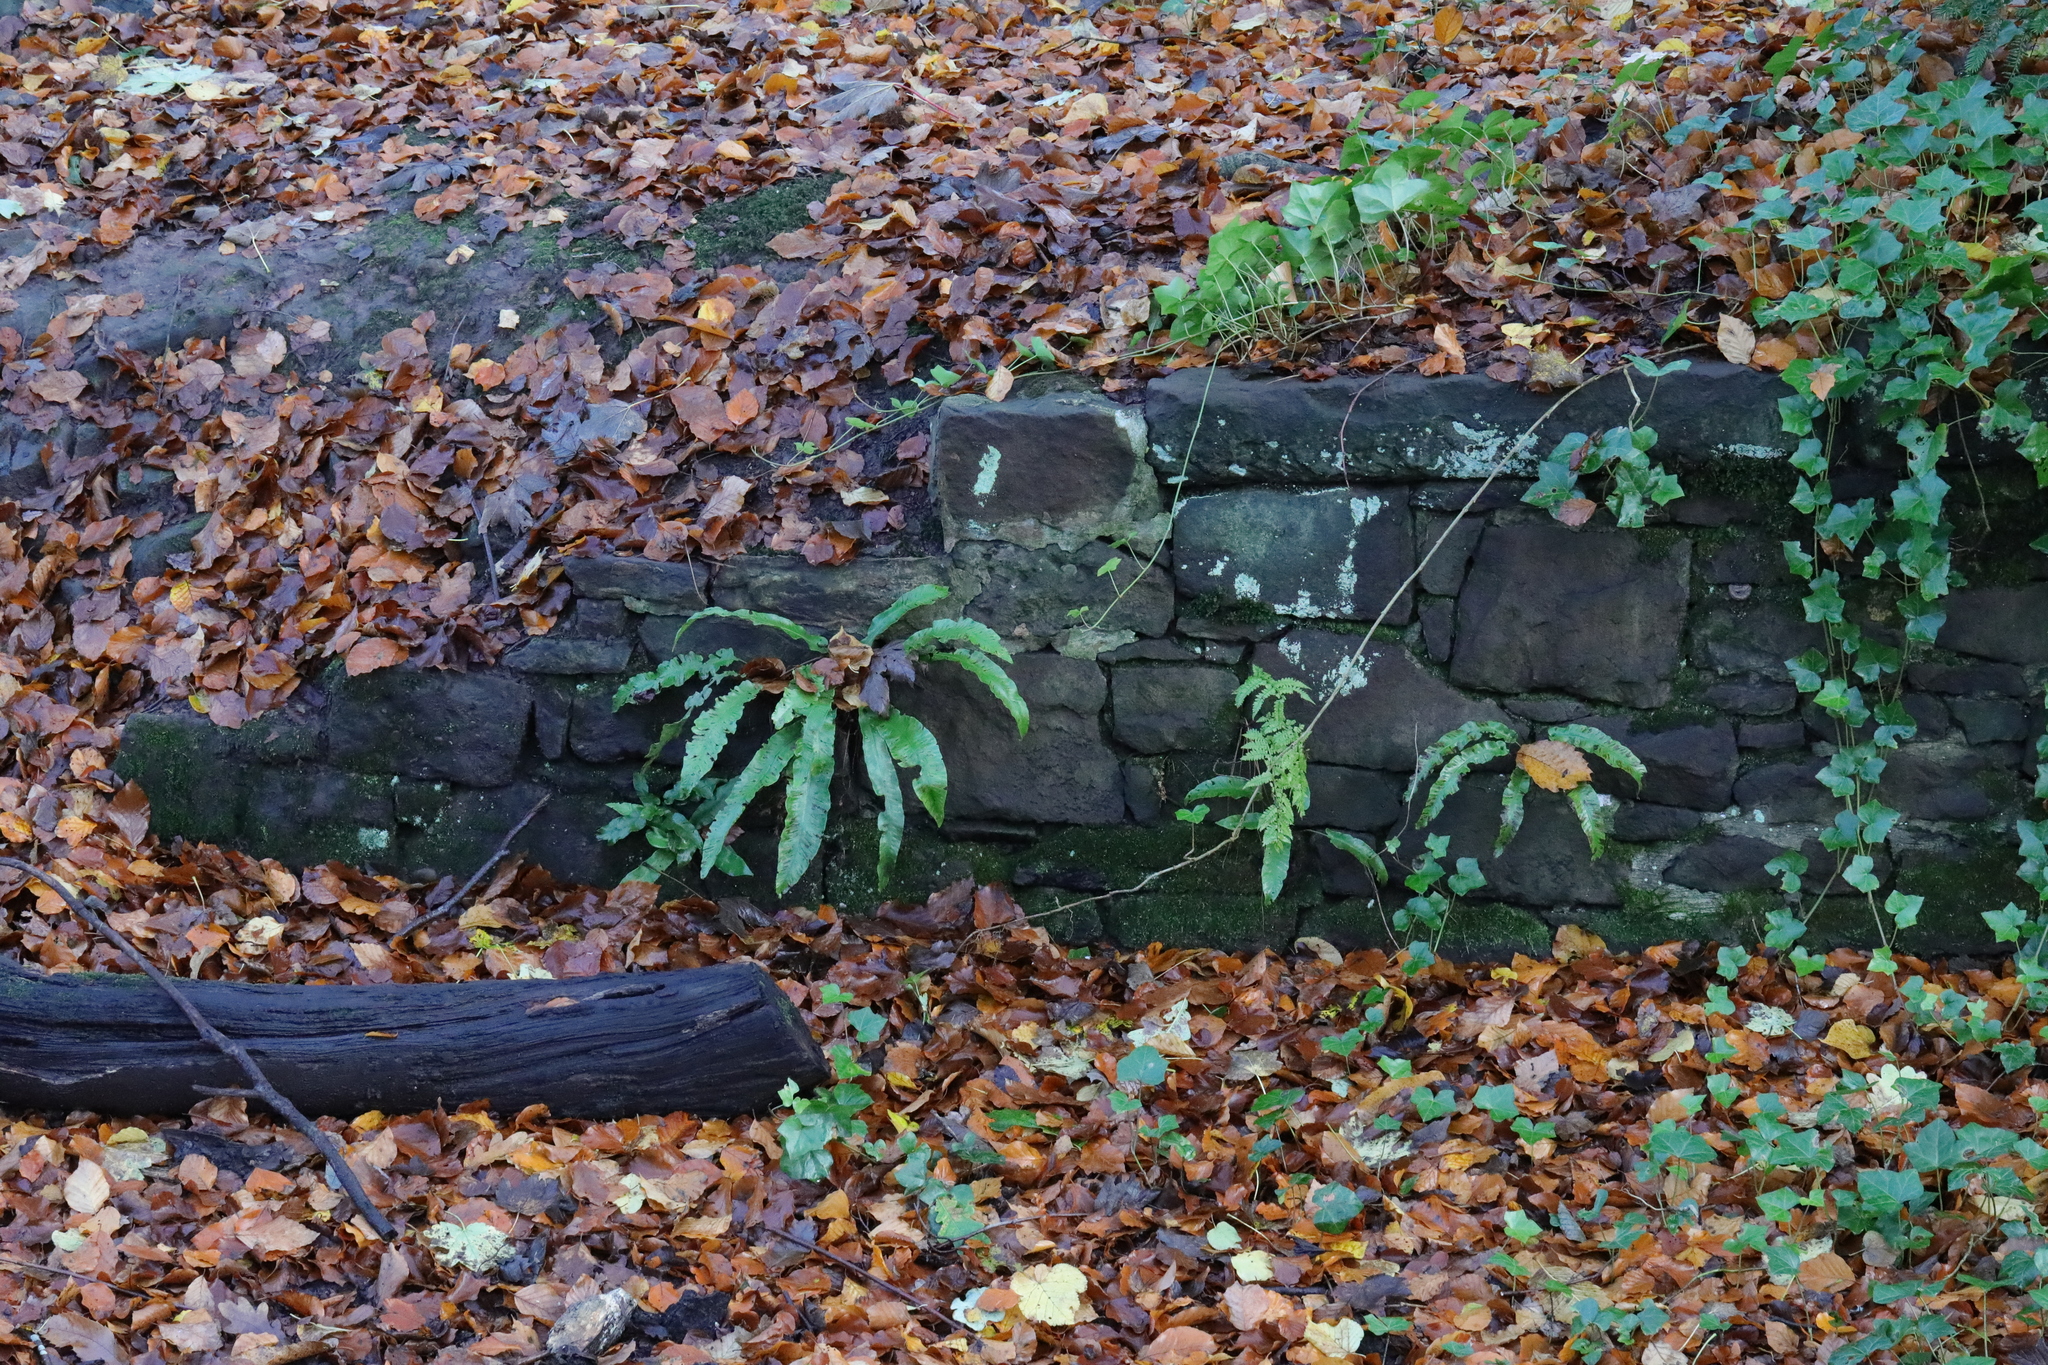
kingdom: Plantae
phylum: Tracheophyta
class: Polypodiopsida
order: Polypodiales
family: Aspleniaceae
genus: Asplenium
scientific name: Asplenium scolopendrium
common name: Hart's-tongue fern
